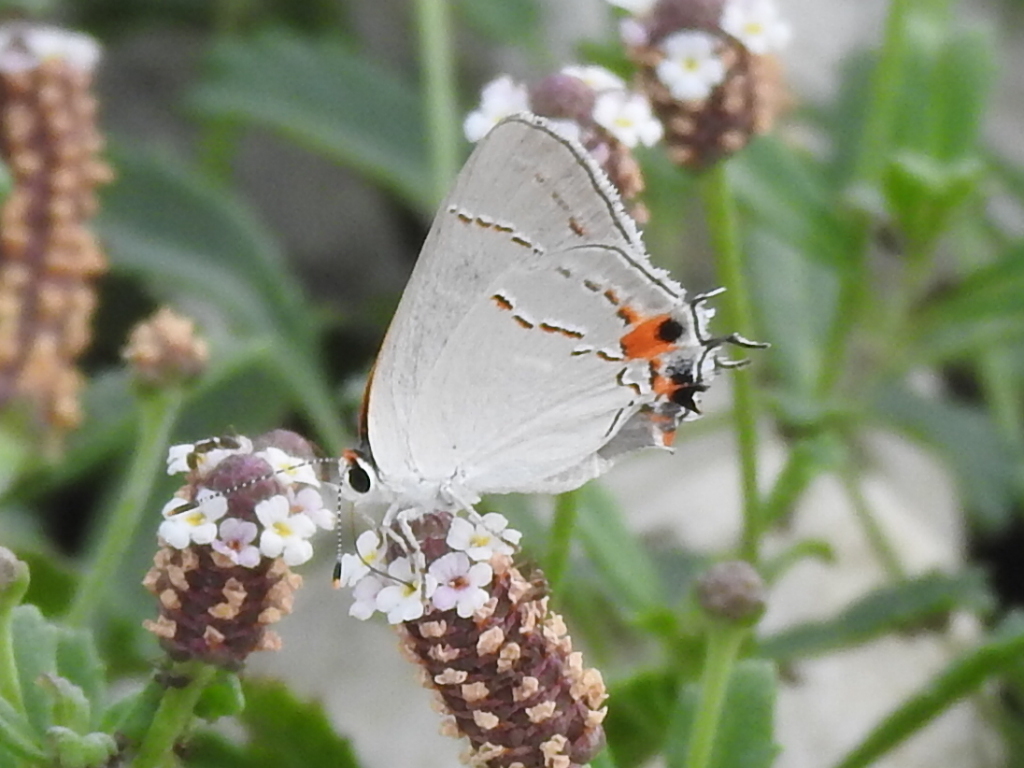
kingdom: Animalia
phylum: Arthropoda
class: Insecta
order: Lepidoptera
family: Lycaenidae
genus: Strymon
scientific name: Strymon melinus
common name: Gray hairstreak
